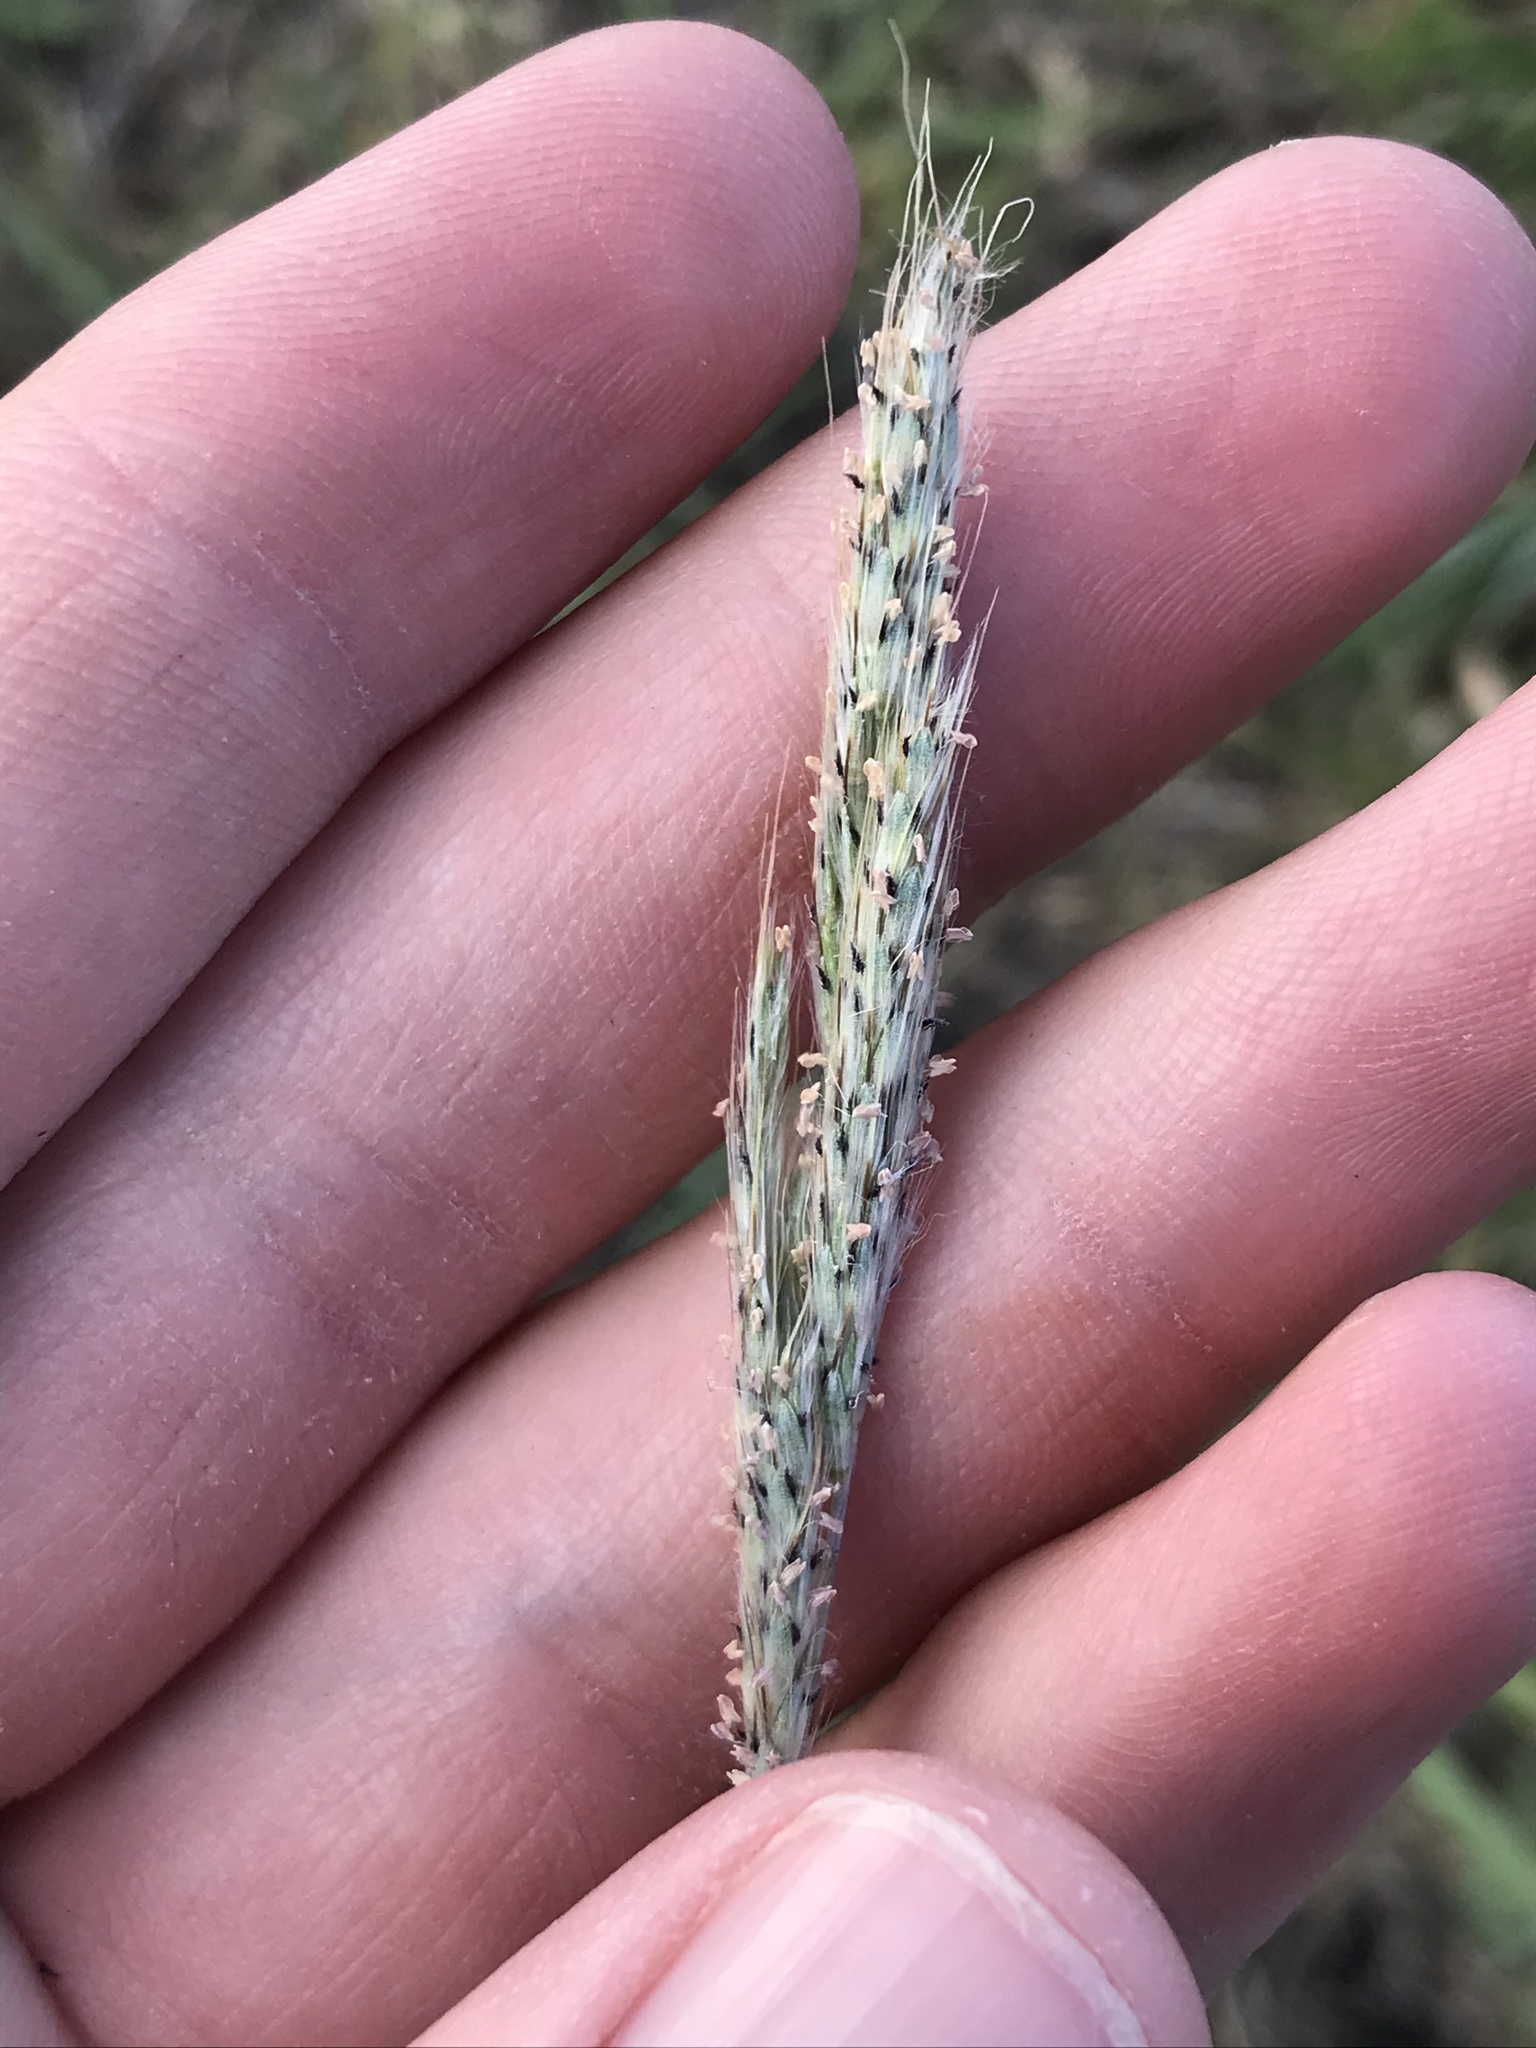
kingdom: Plantae
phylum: Tracheophyta
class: Liliopsida
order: Poales
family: Poaceae
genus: Bothriochloa
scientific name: Bothriochloa barbinodis
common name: Cane bluestem
